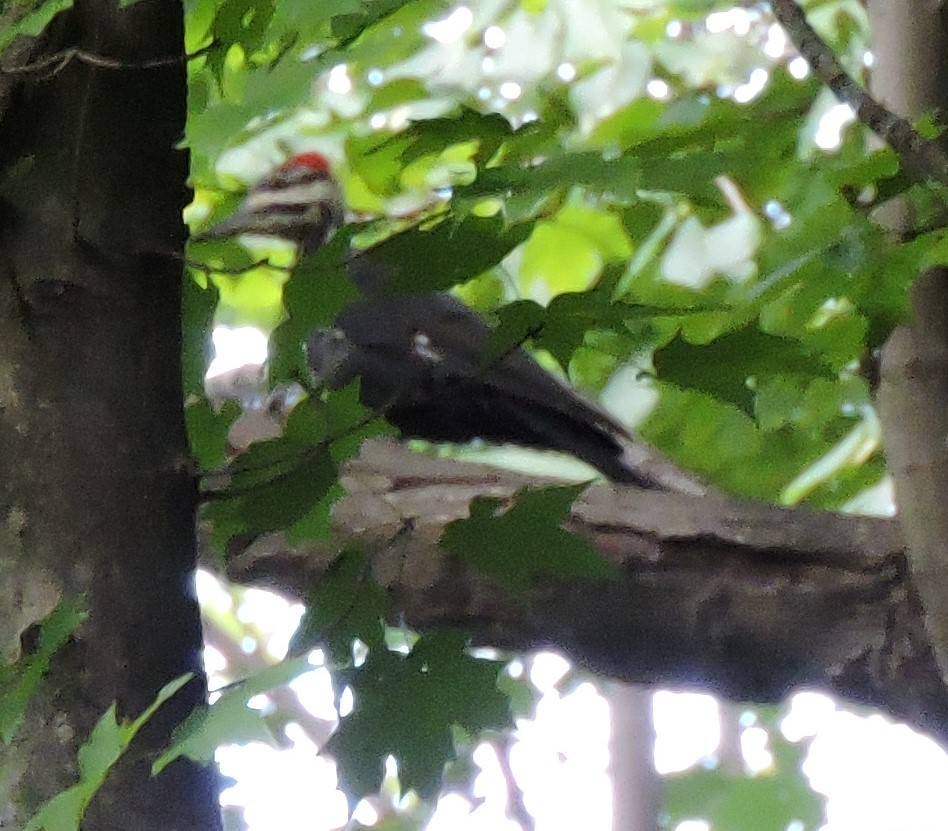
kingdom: Animalia
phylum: Chordata
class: Aves
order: Piciformes
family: Picidae
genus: Dryocopus
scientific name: Dryocopus pileatus
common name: Pileated woodpecker
